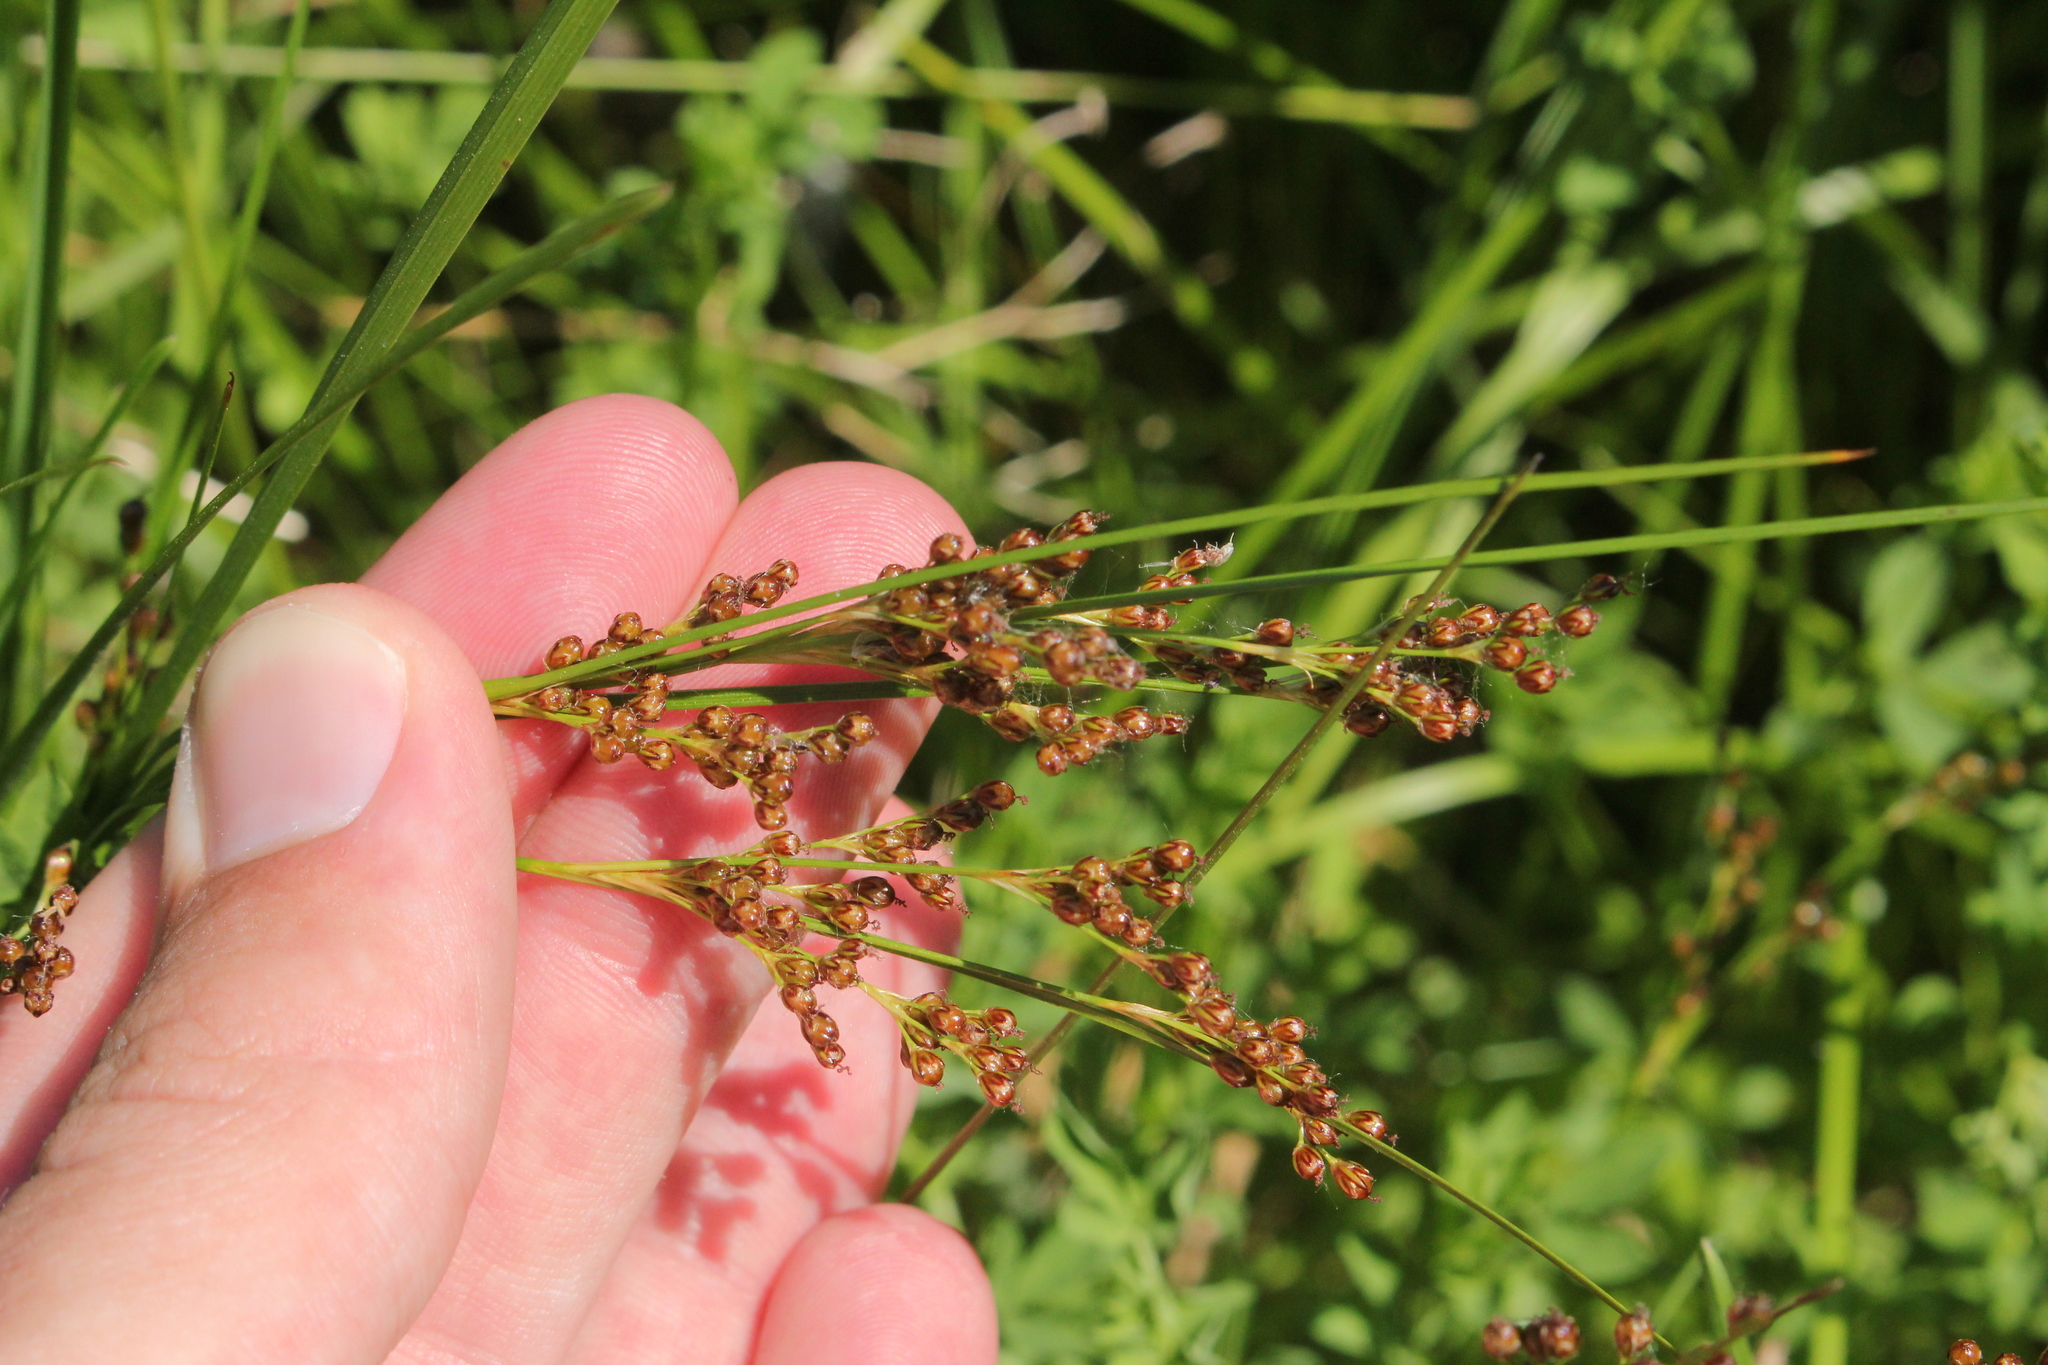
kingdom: Plantae
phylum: Tracheophyta
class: Liliopsida
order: Poales
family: Juncaceae
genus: Juncus
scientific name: Juncus compressus
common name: Round-fruited rush
